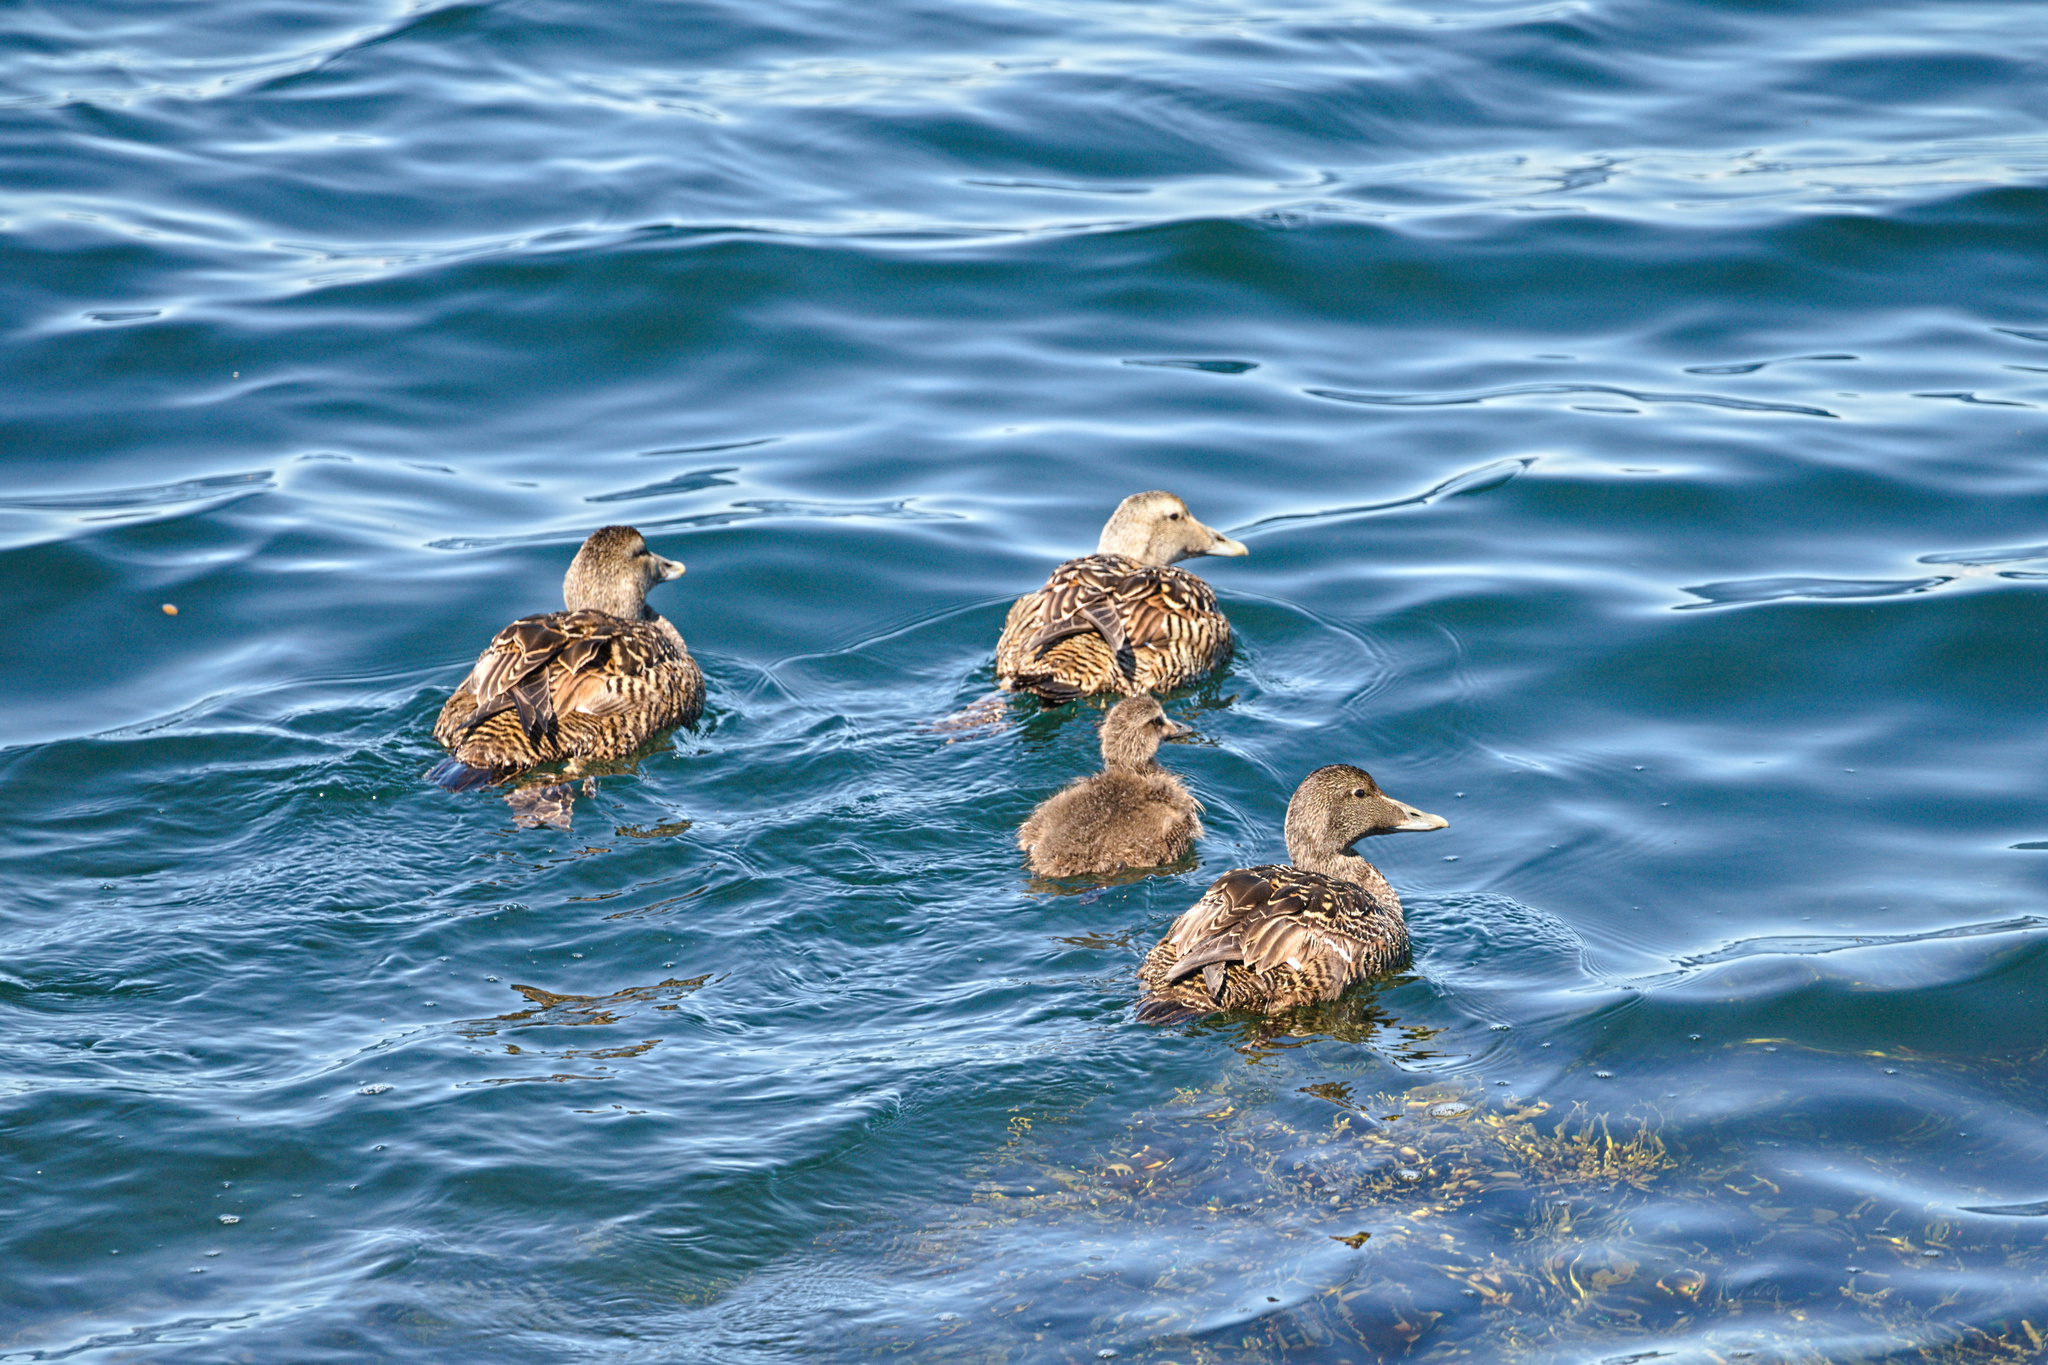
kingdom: Animalia
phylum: Chordata
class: Aves
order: Anseriformes
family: Anatidae
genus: Somateria
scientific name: Somateria mollissima
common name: Common eider
